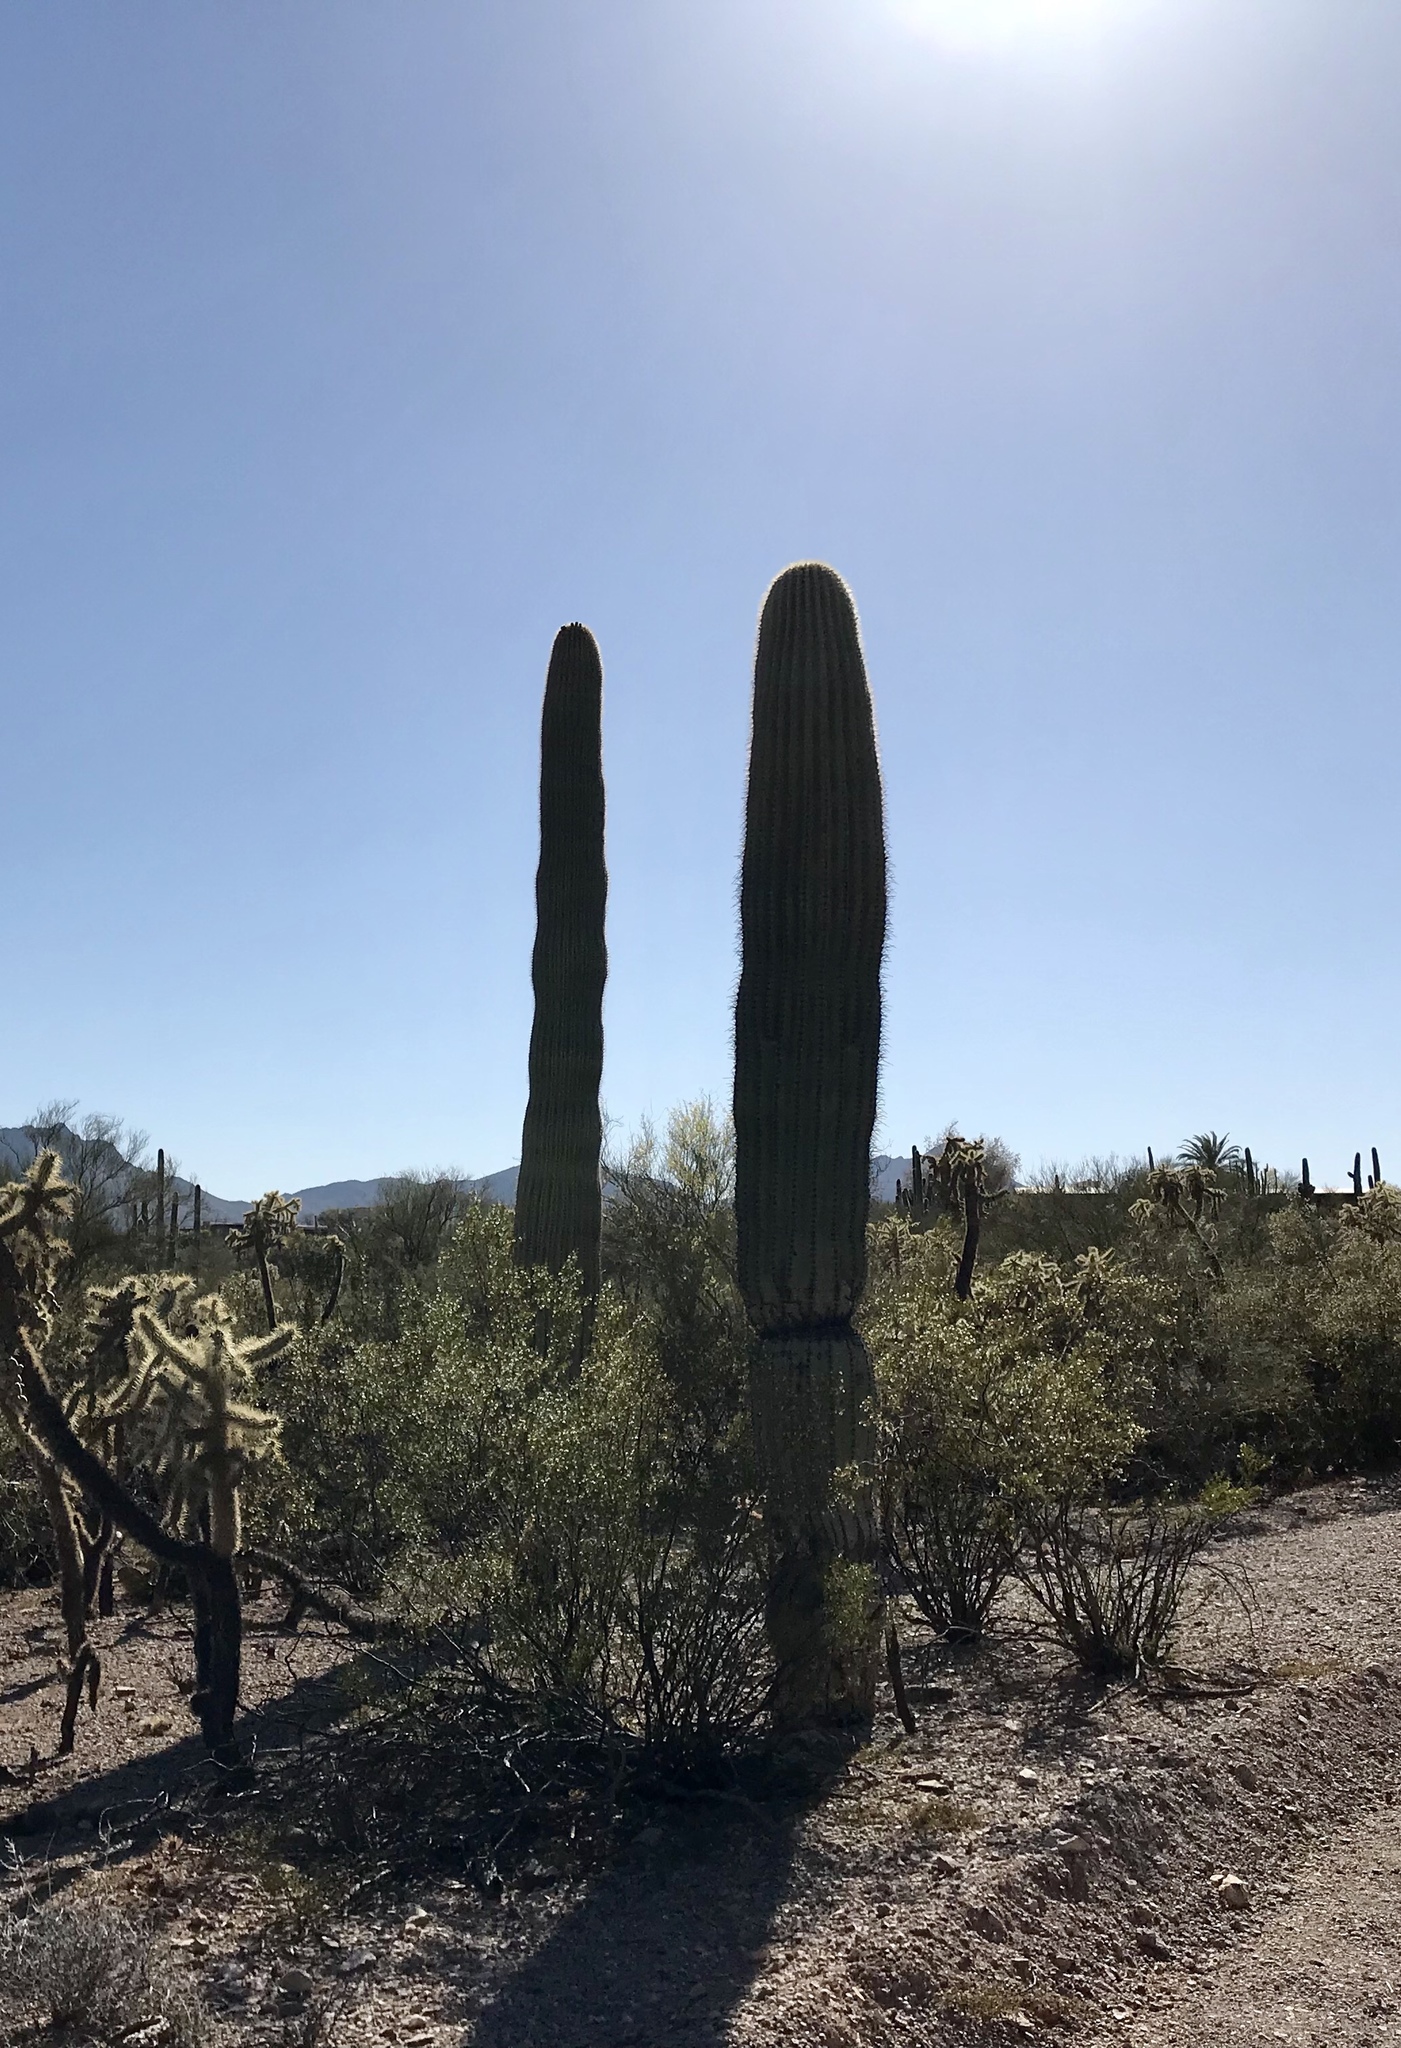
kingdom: Plantae
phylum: Tracheophyta
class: Magnoliopsida
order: Caryophyllales
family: Cactaceae
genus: Carnegiea
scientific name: Carnegiea gigantea
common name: Saguaro
